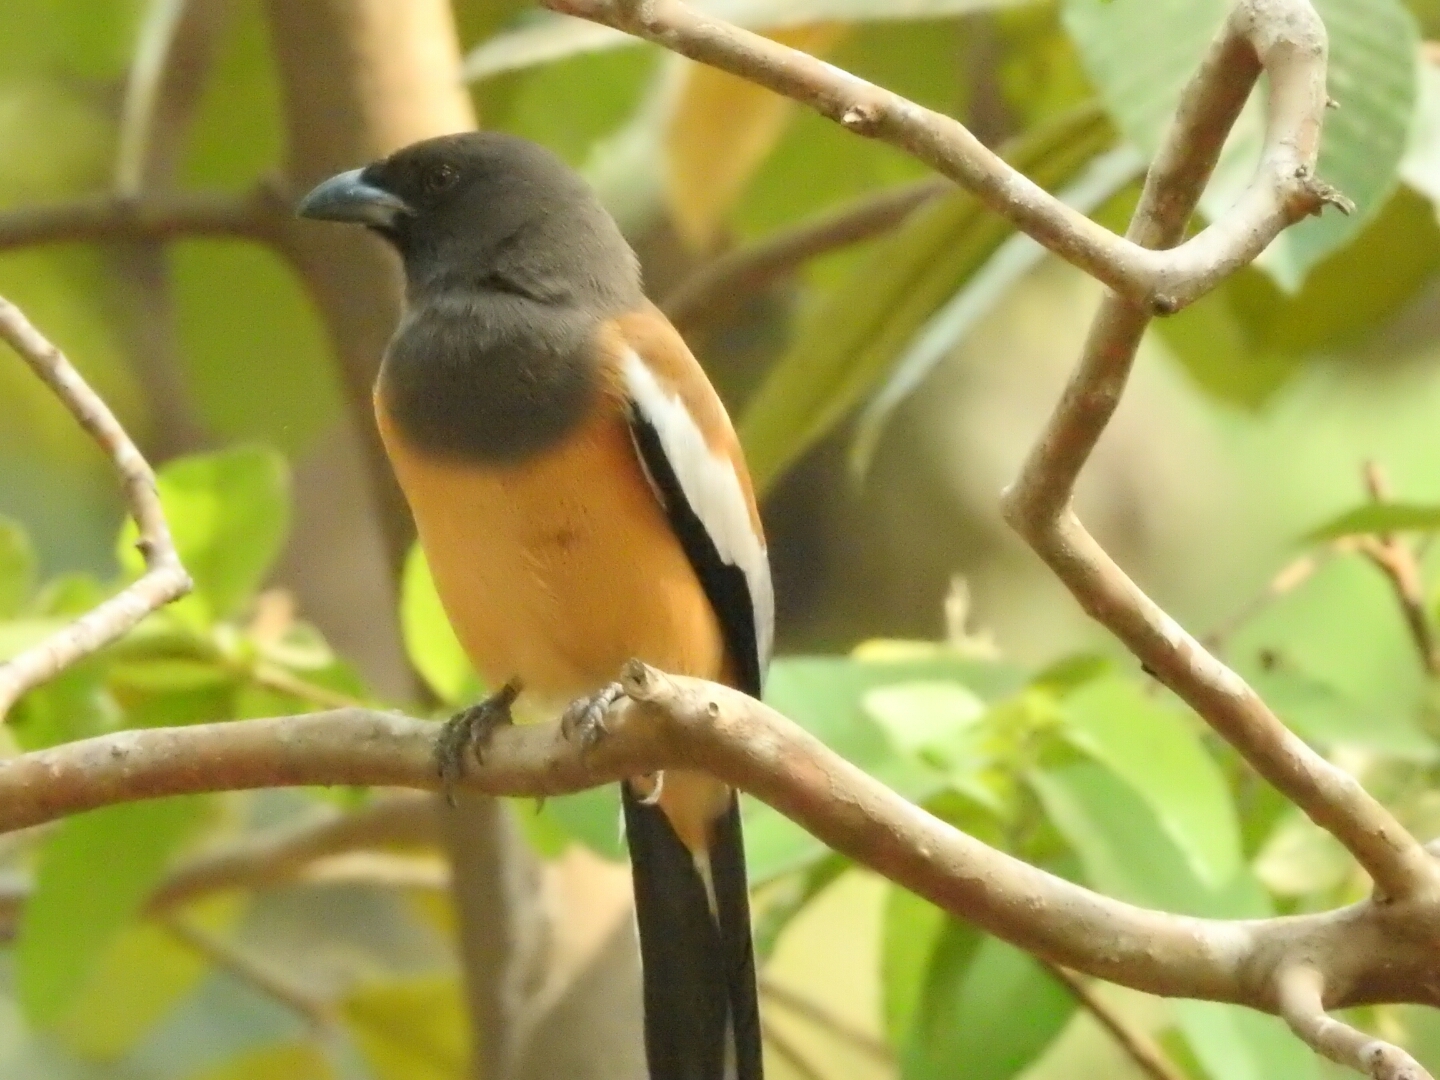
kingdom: Animalia
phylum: Chordata
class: Aves
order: Passeriformes
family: Corvidae
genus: Dendrocitta
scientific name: Dendrocitta vagabunda
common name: Rufous treepie
